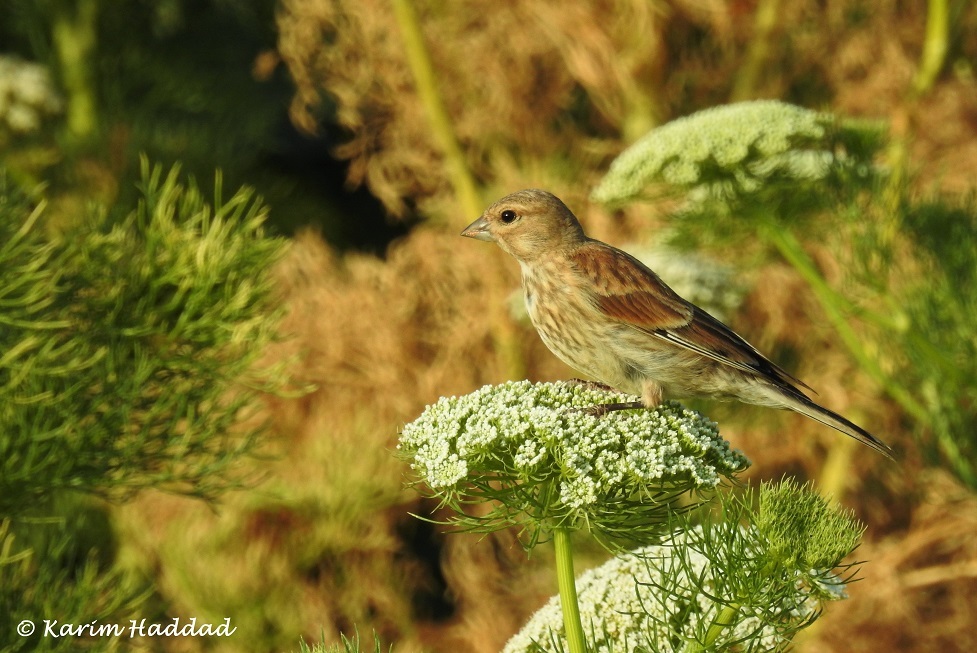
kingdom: Animalia
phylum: Chordata
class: Aves
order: Passeriformes
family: Fringillidae
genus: Linaria
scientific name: Linaria cannabina
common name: Common linnet
